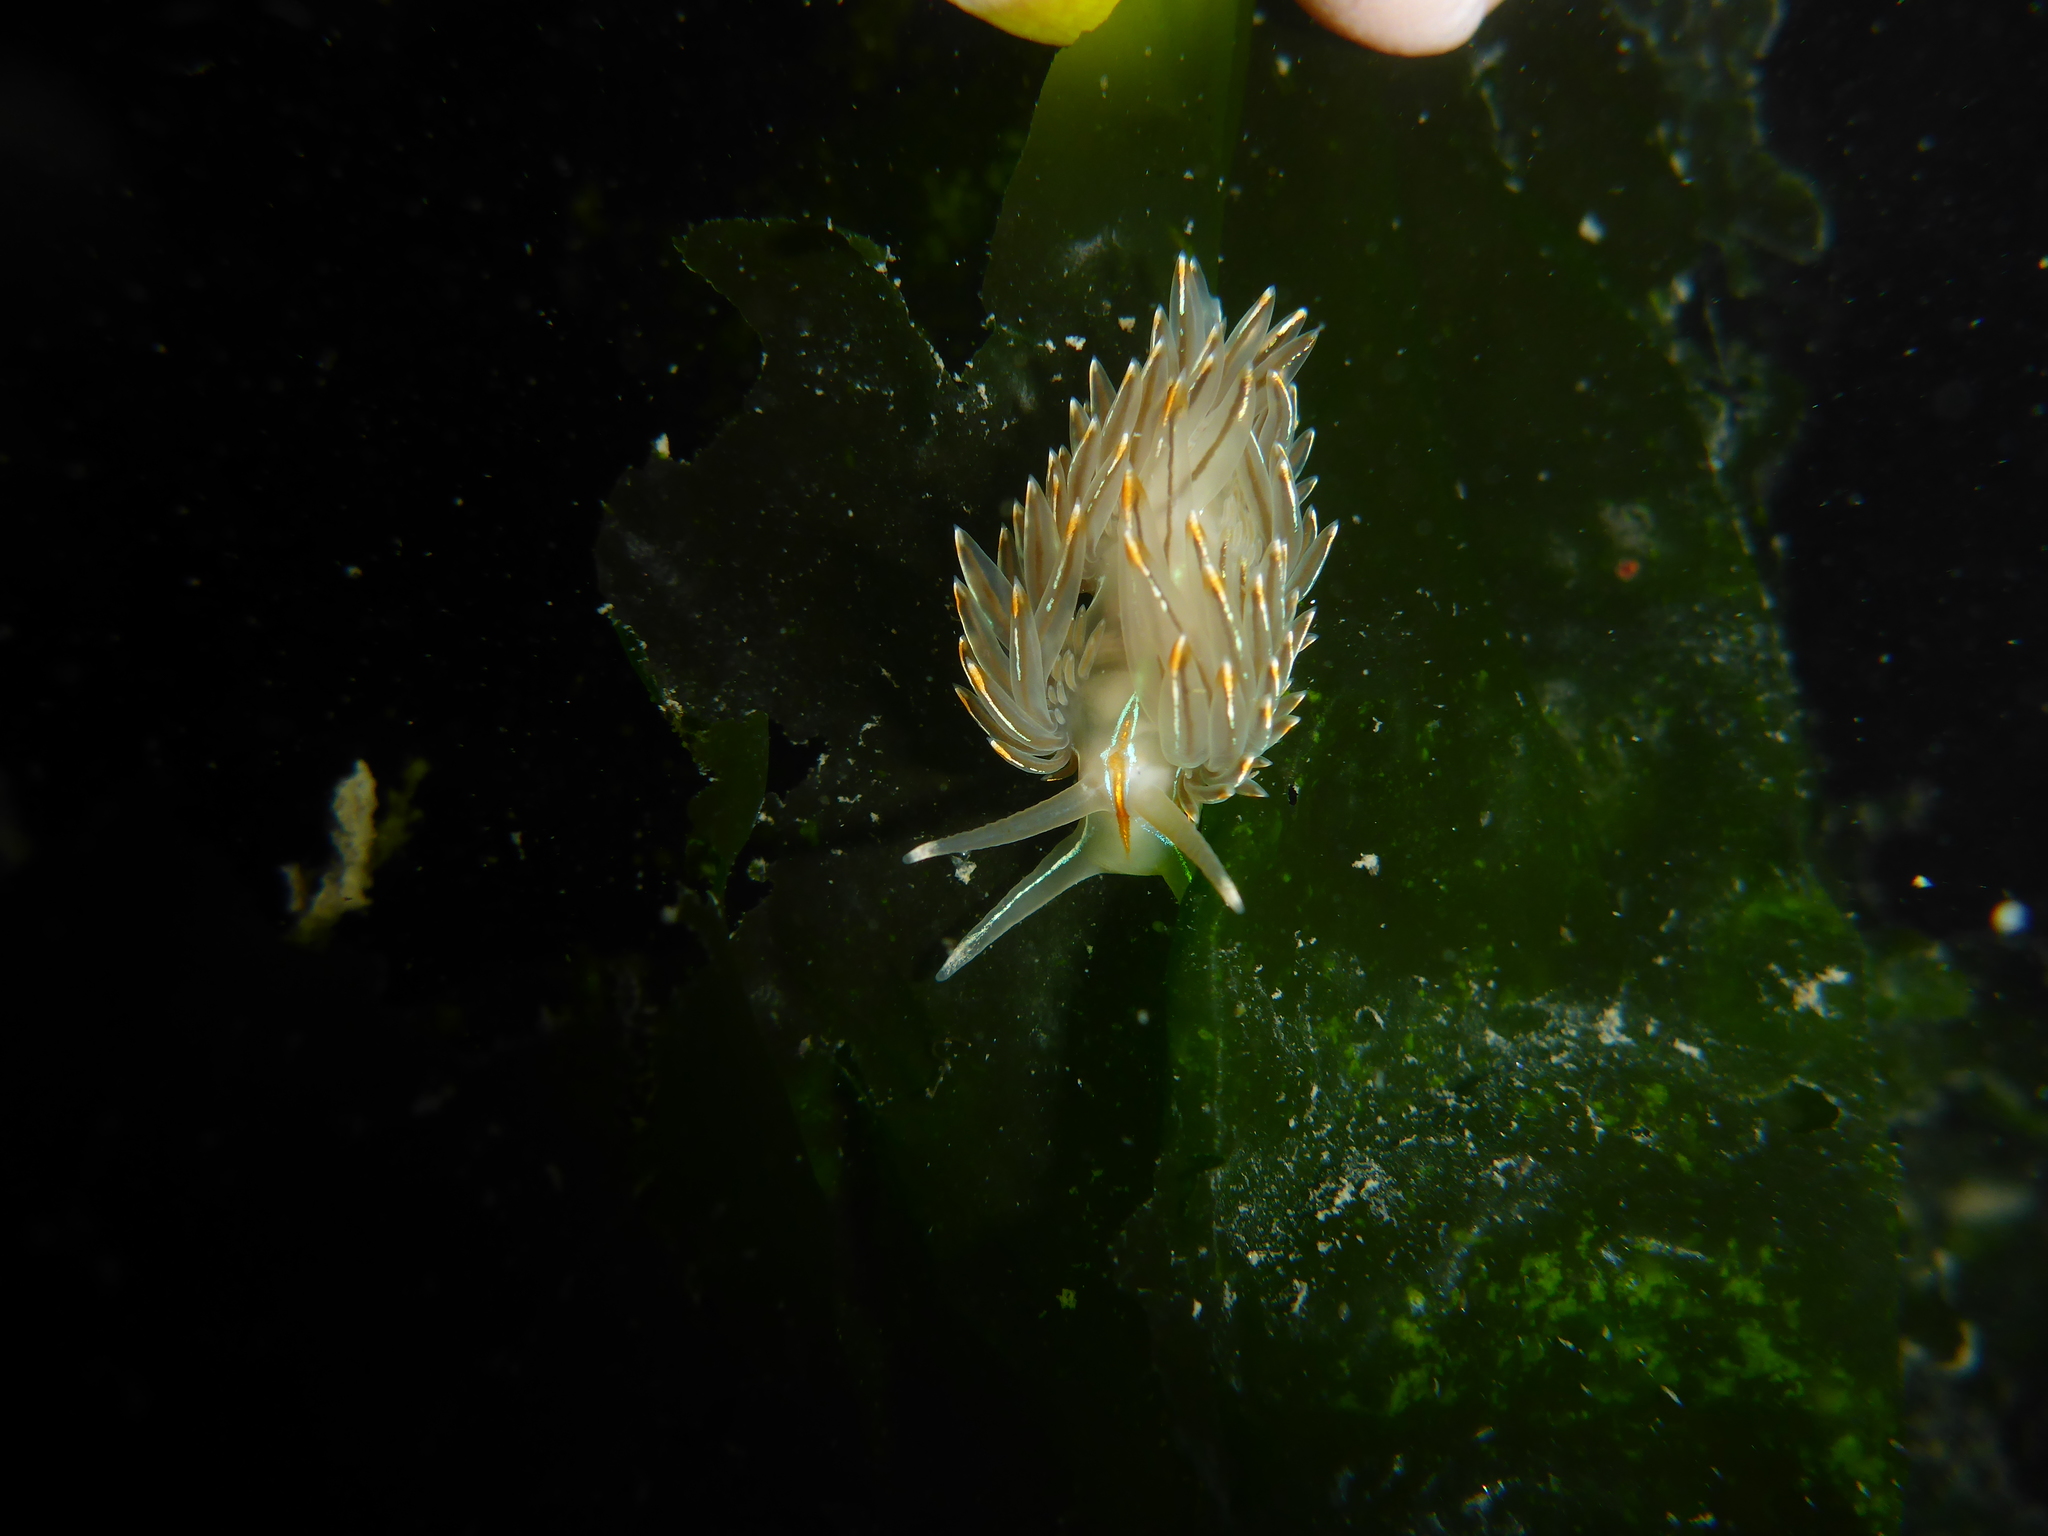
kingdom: Animalia
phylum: Mollusca
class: Gastropoda
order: Nudibranchia
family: Myrrhinidae
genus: Hermissenda
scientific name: Hermissenda crassicornis
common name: Hermissenda
